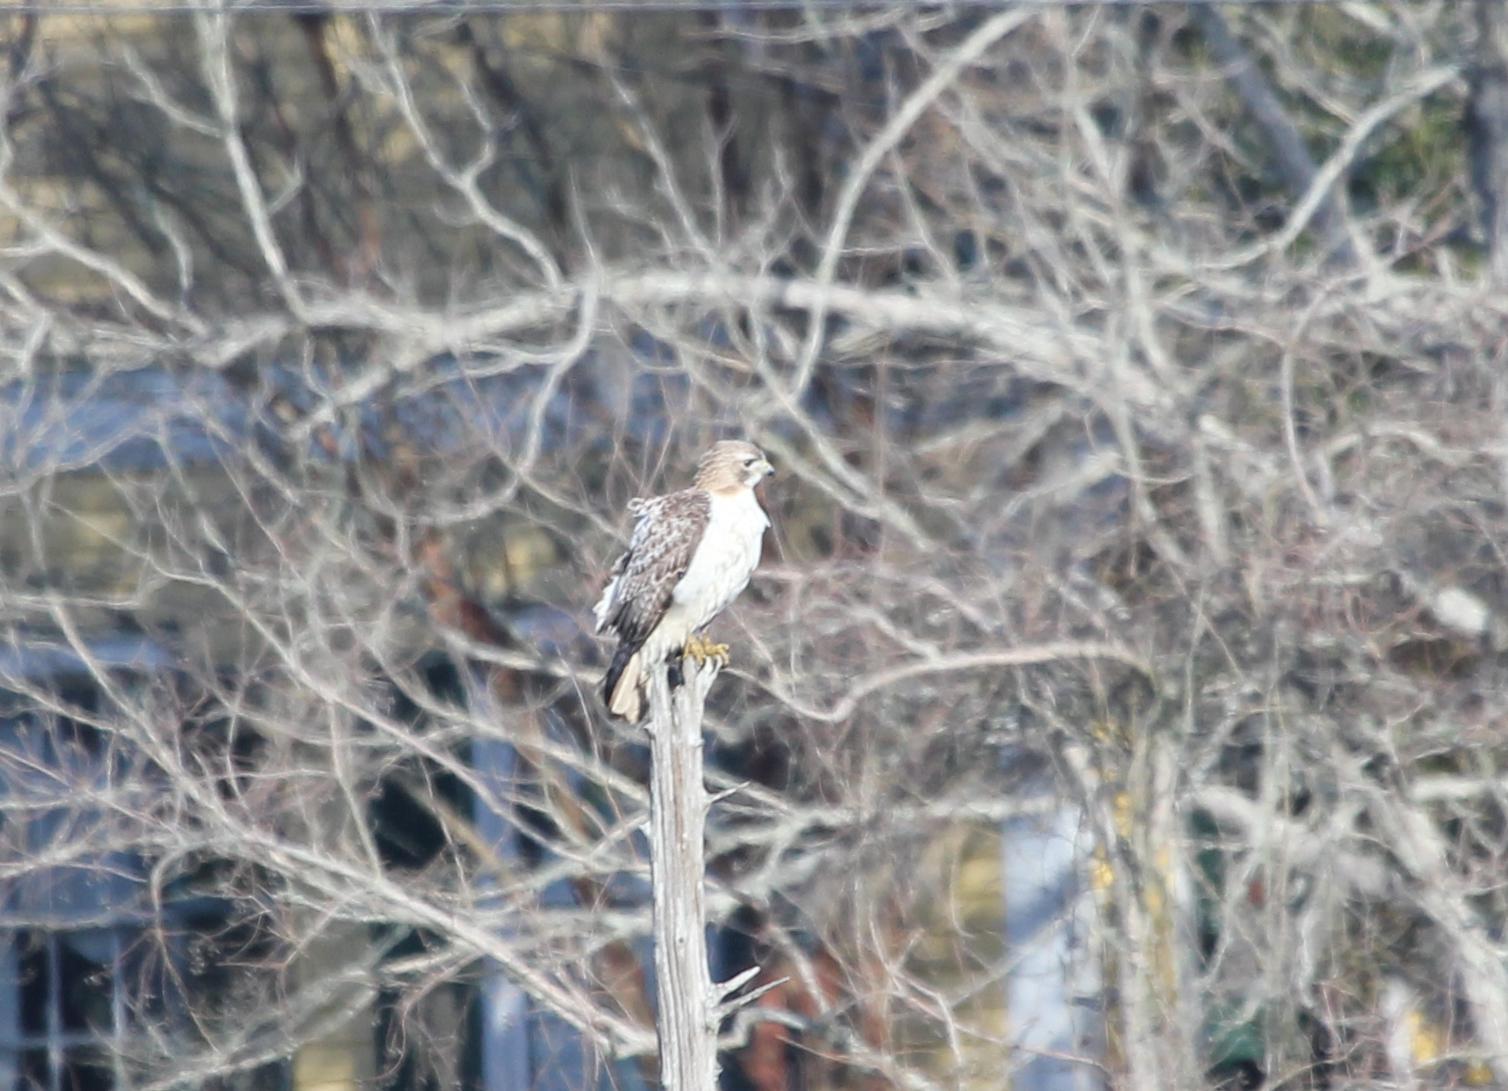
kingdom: Animalia
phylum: Chordata
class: Aves
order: Accipitriformes
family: Accipitridae
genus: Buteo
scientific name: Buteo jamaicensis
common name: Red-tailed hawk
